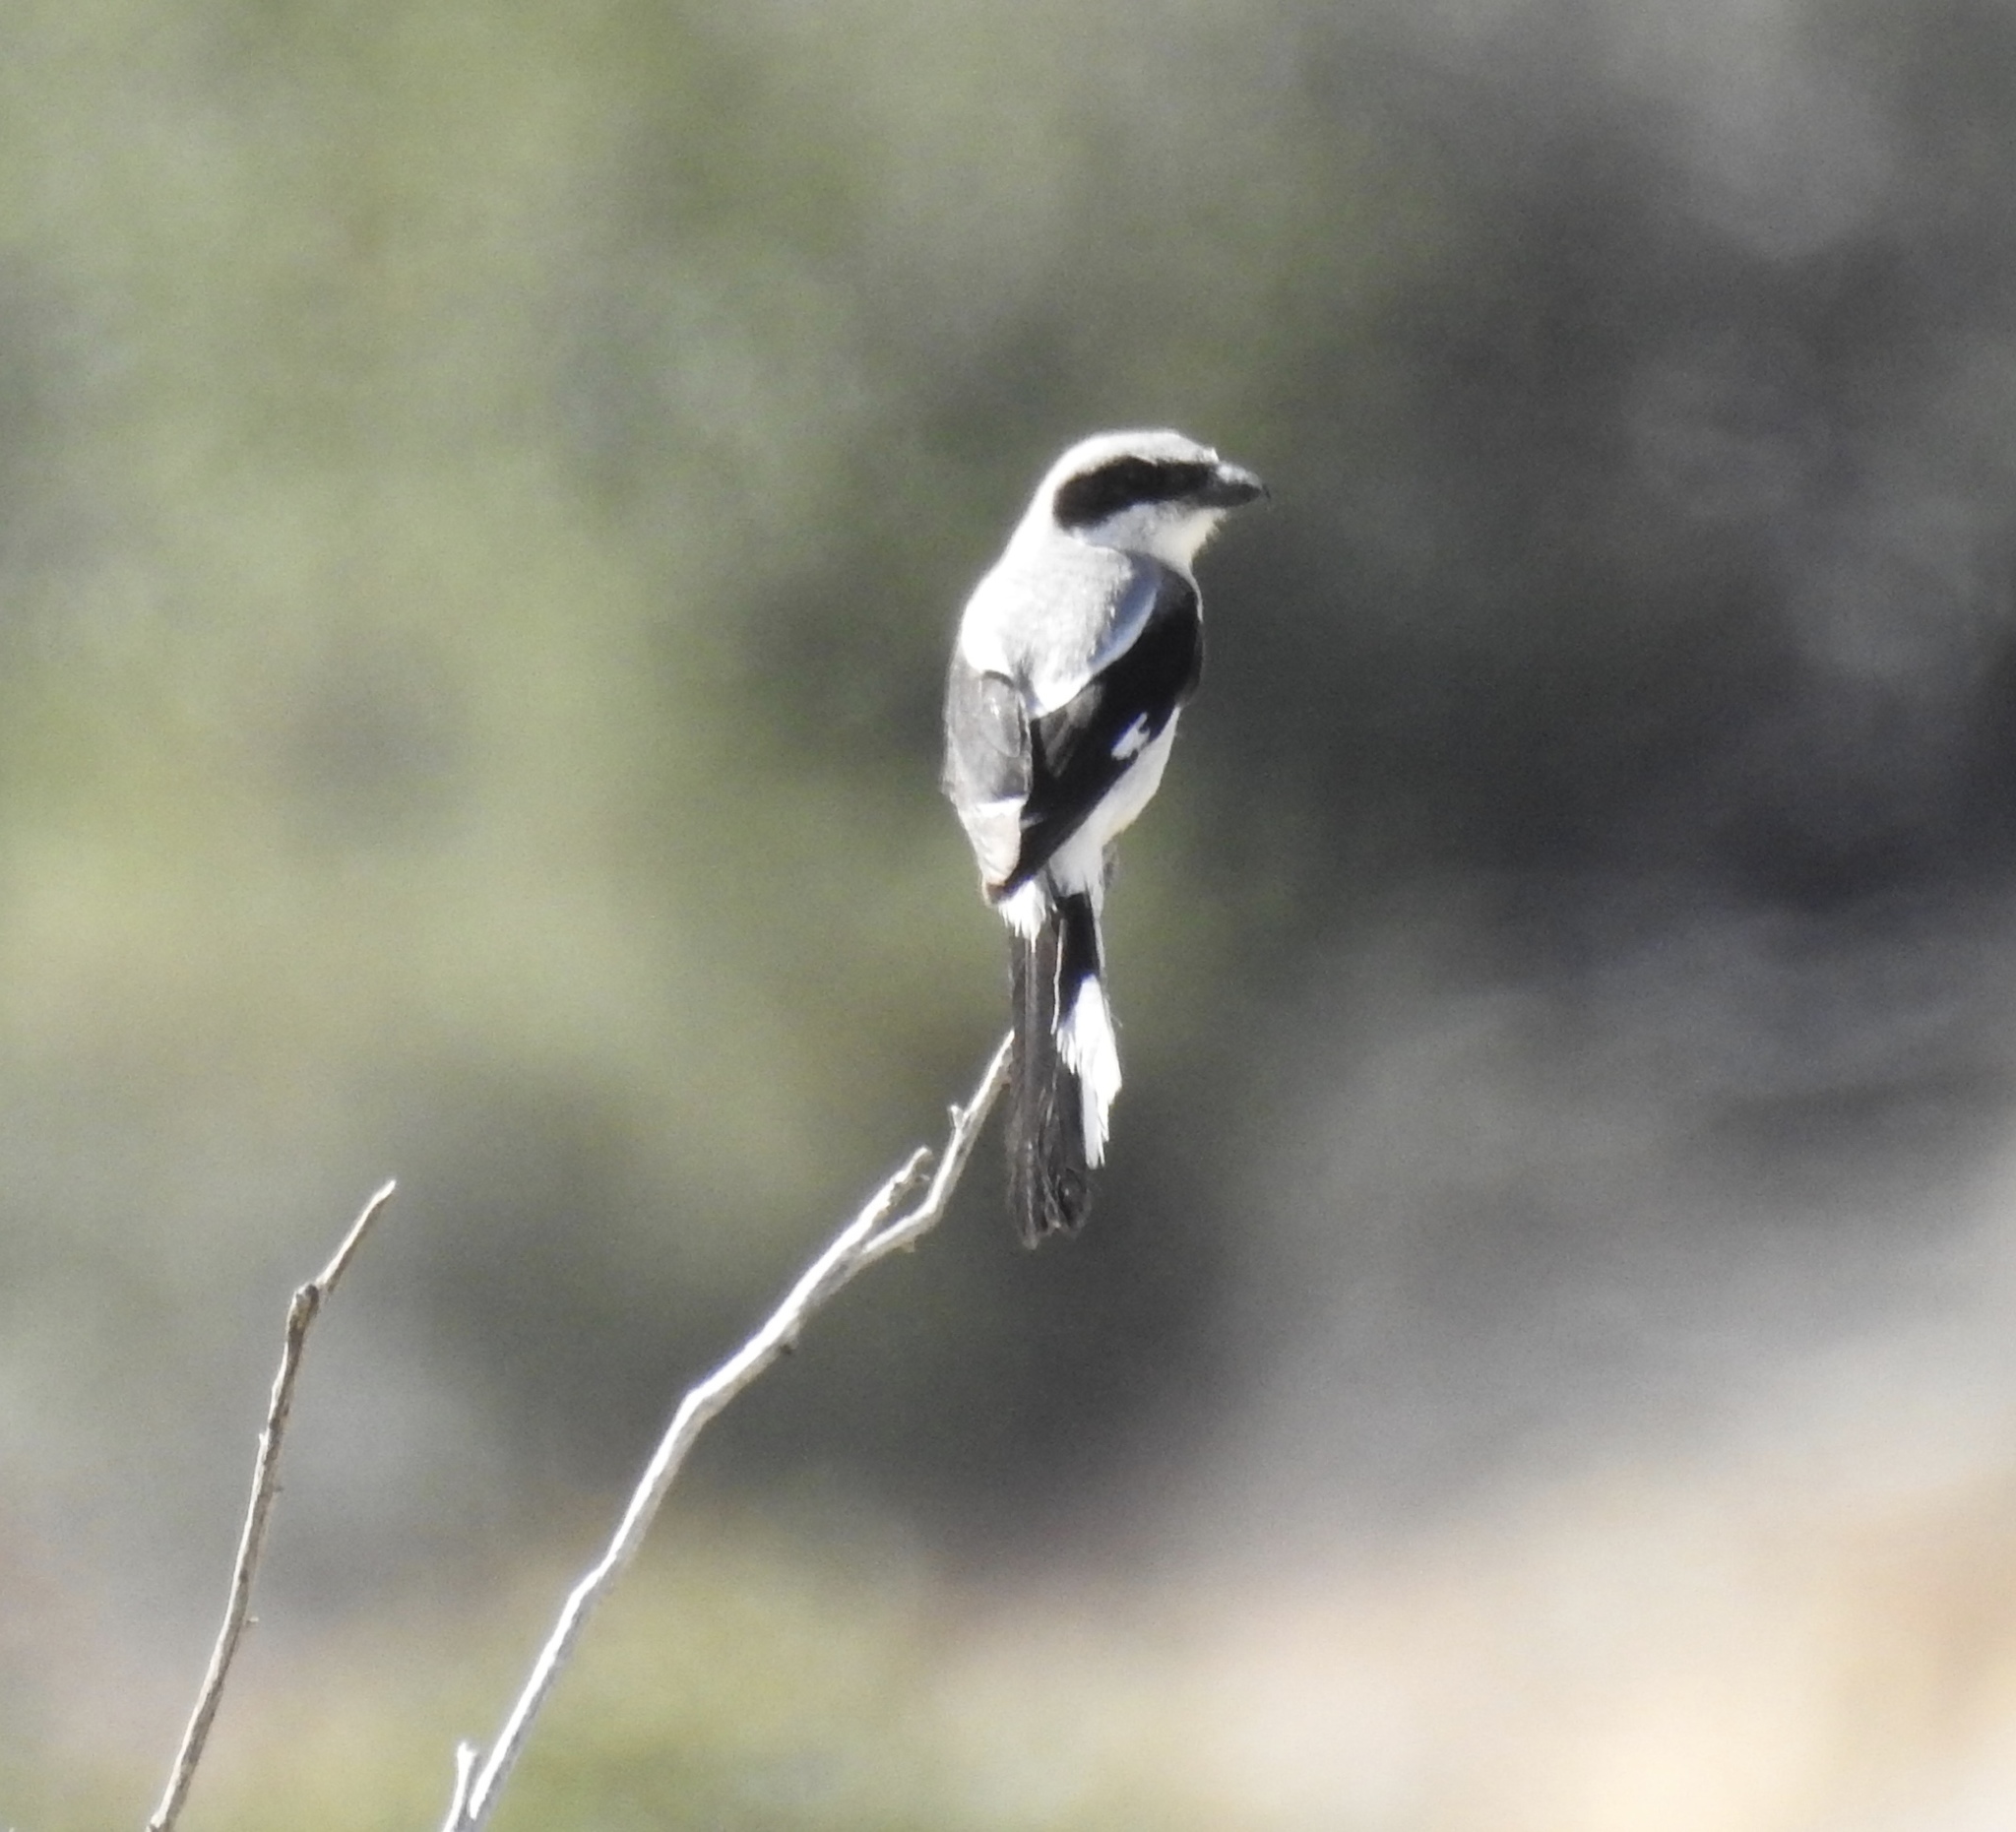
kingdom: Animalia
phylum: Chordata
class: Aves
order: Passeriformes
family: Laniidae
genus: Lanius
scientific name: Lanius ludovicianus
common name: Loggerhead shrike
